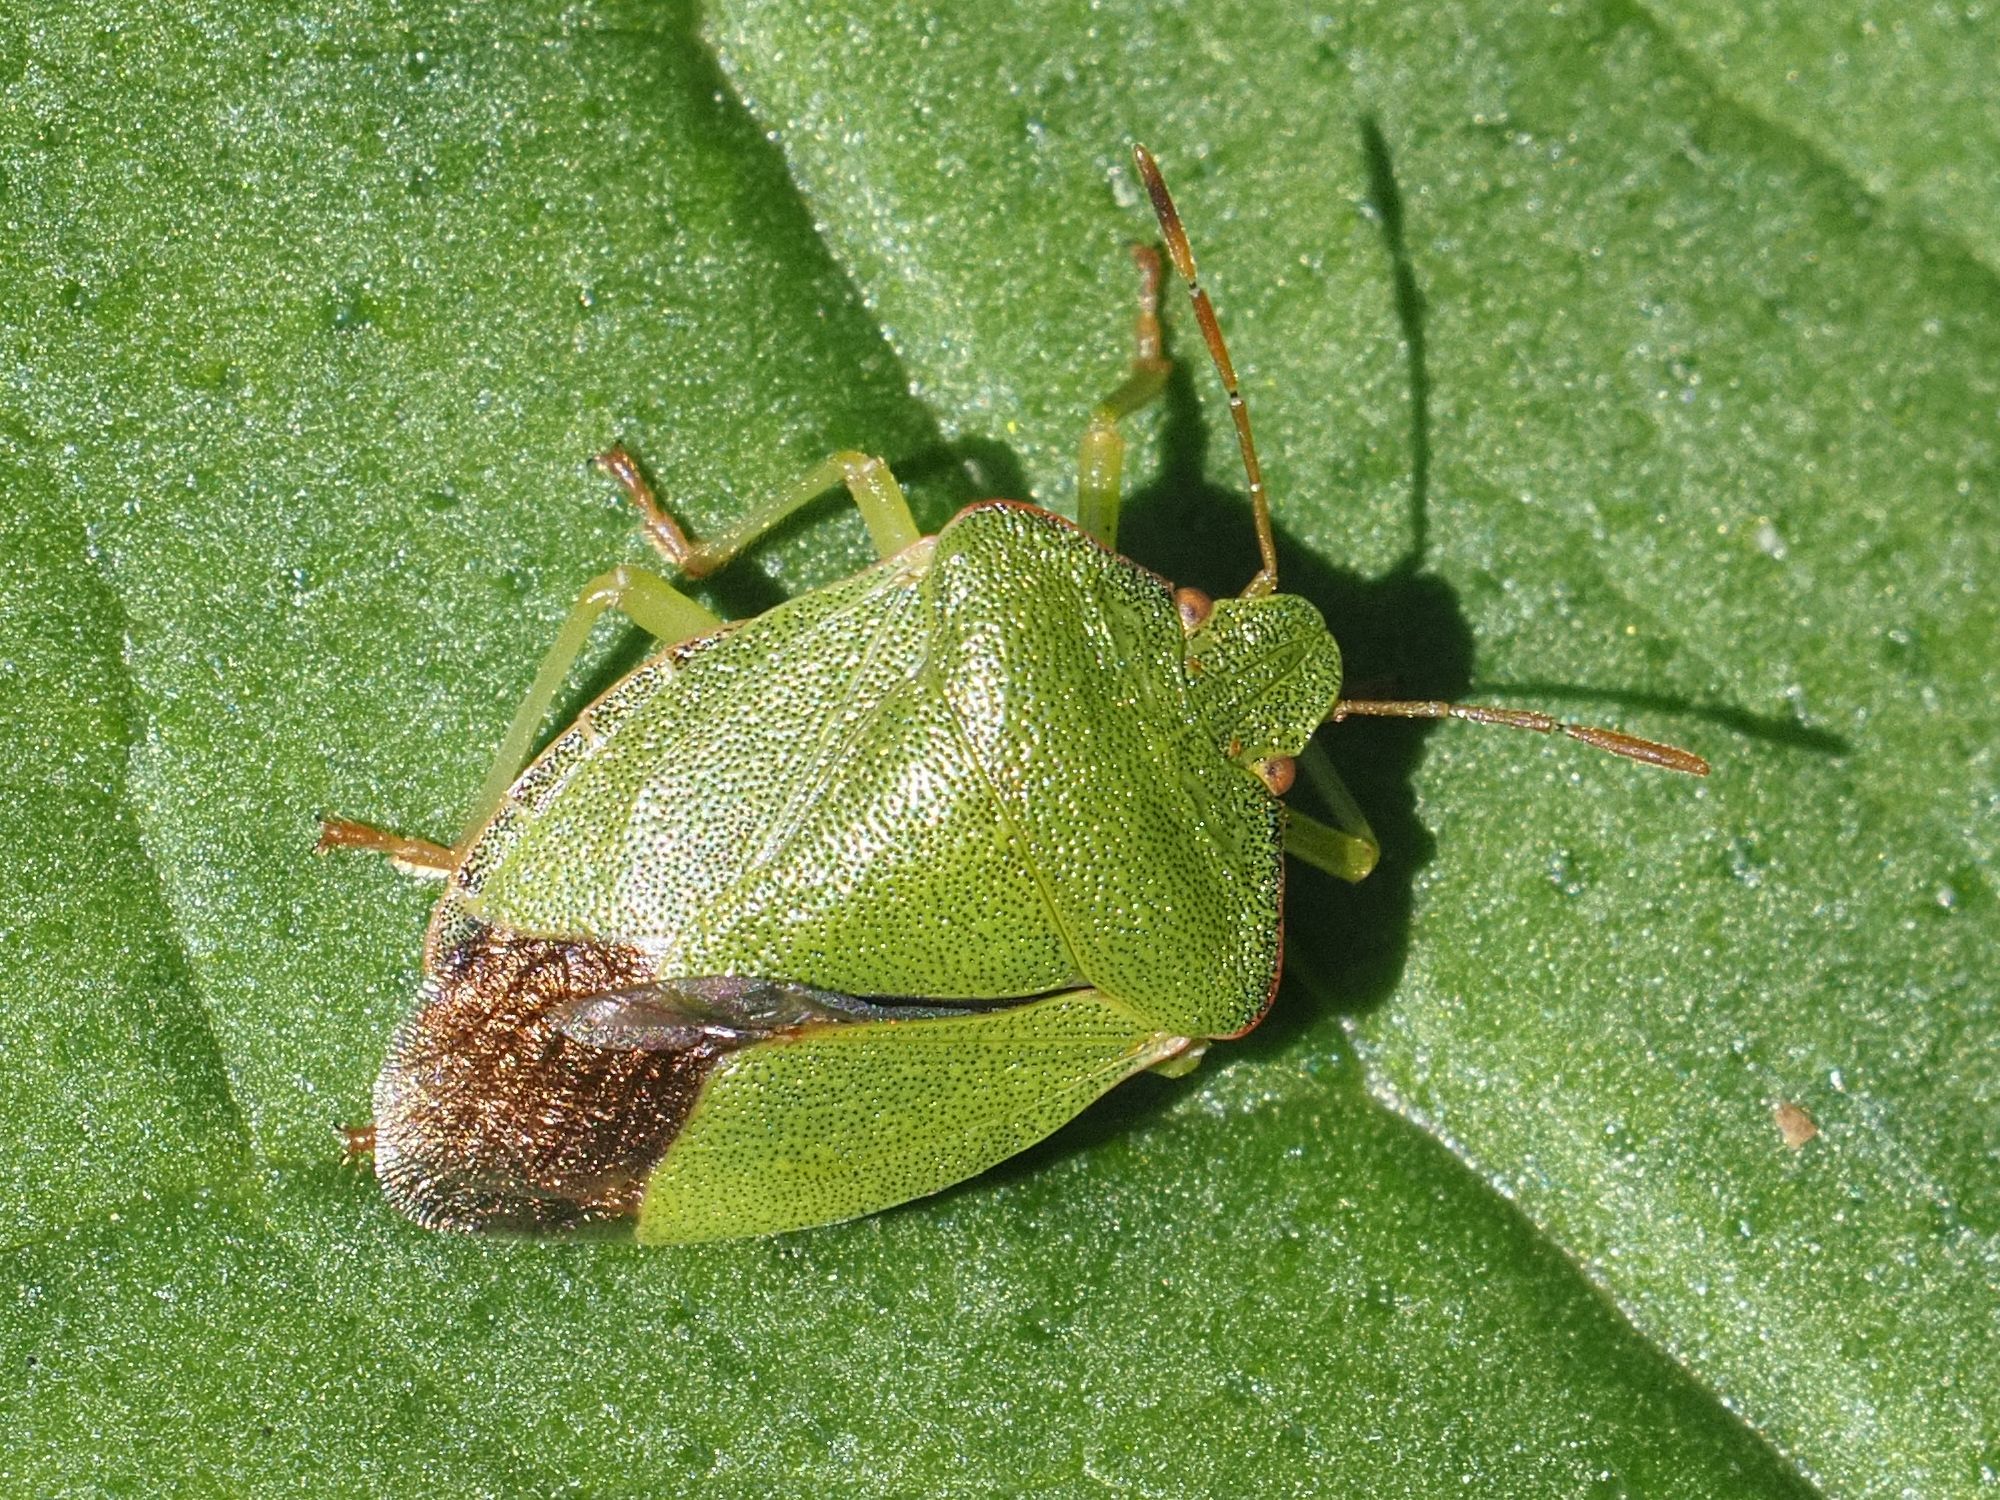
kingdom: Animalia
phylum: Arthropoda
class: Insecta
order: Hemiptera
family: Pentatomidae
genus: Palomena
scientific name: Palomena prasina
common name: Green shieldbug
